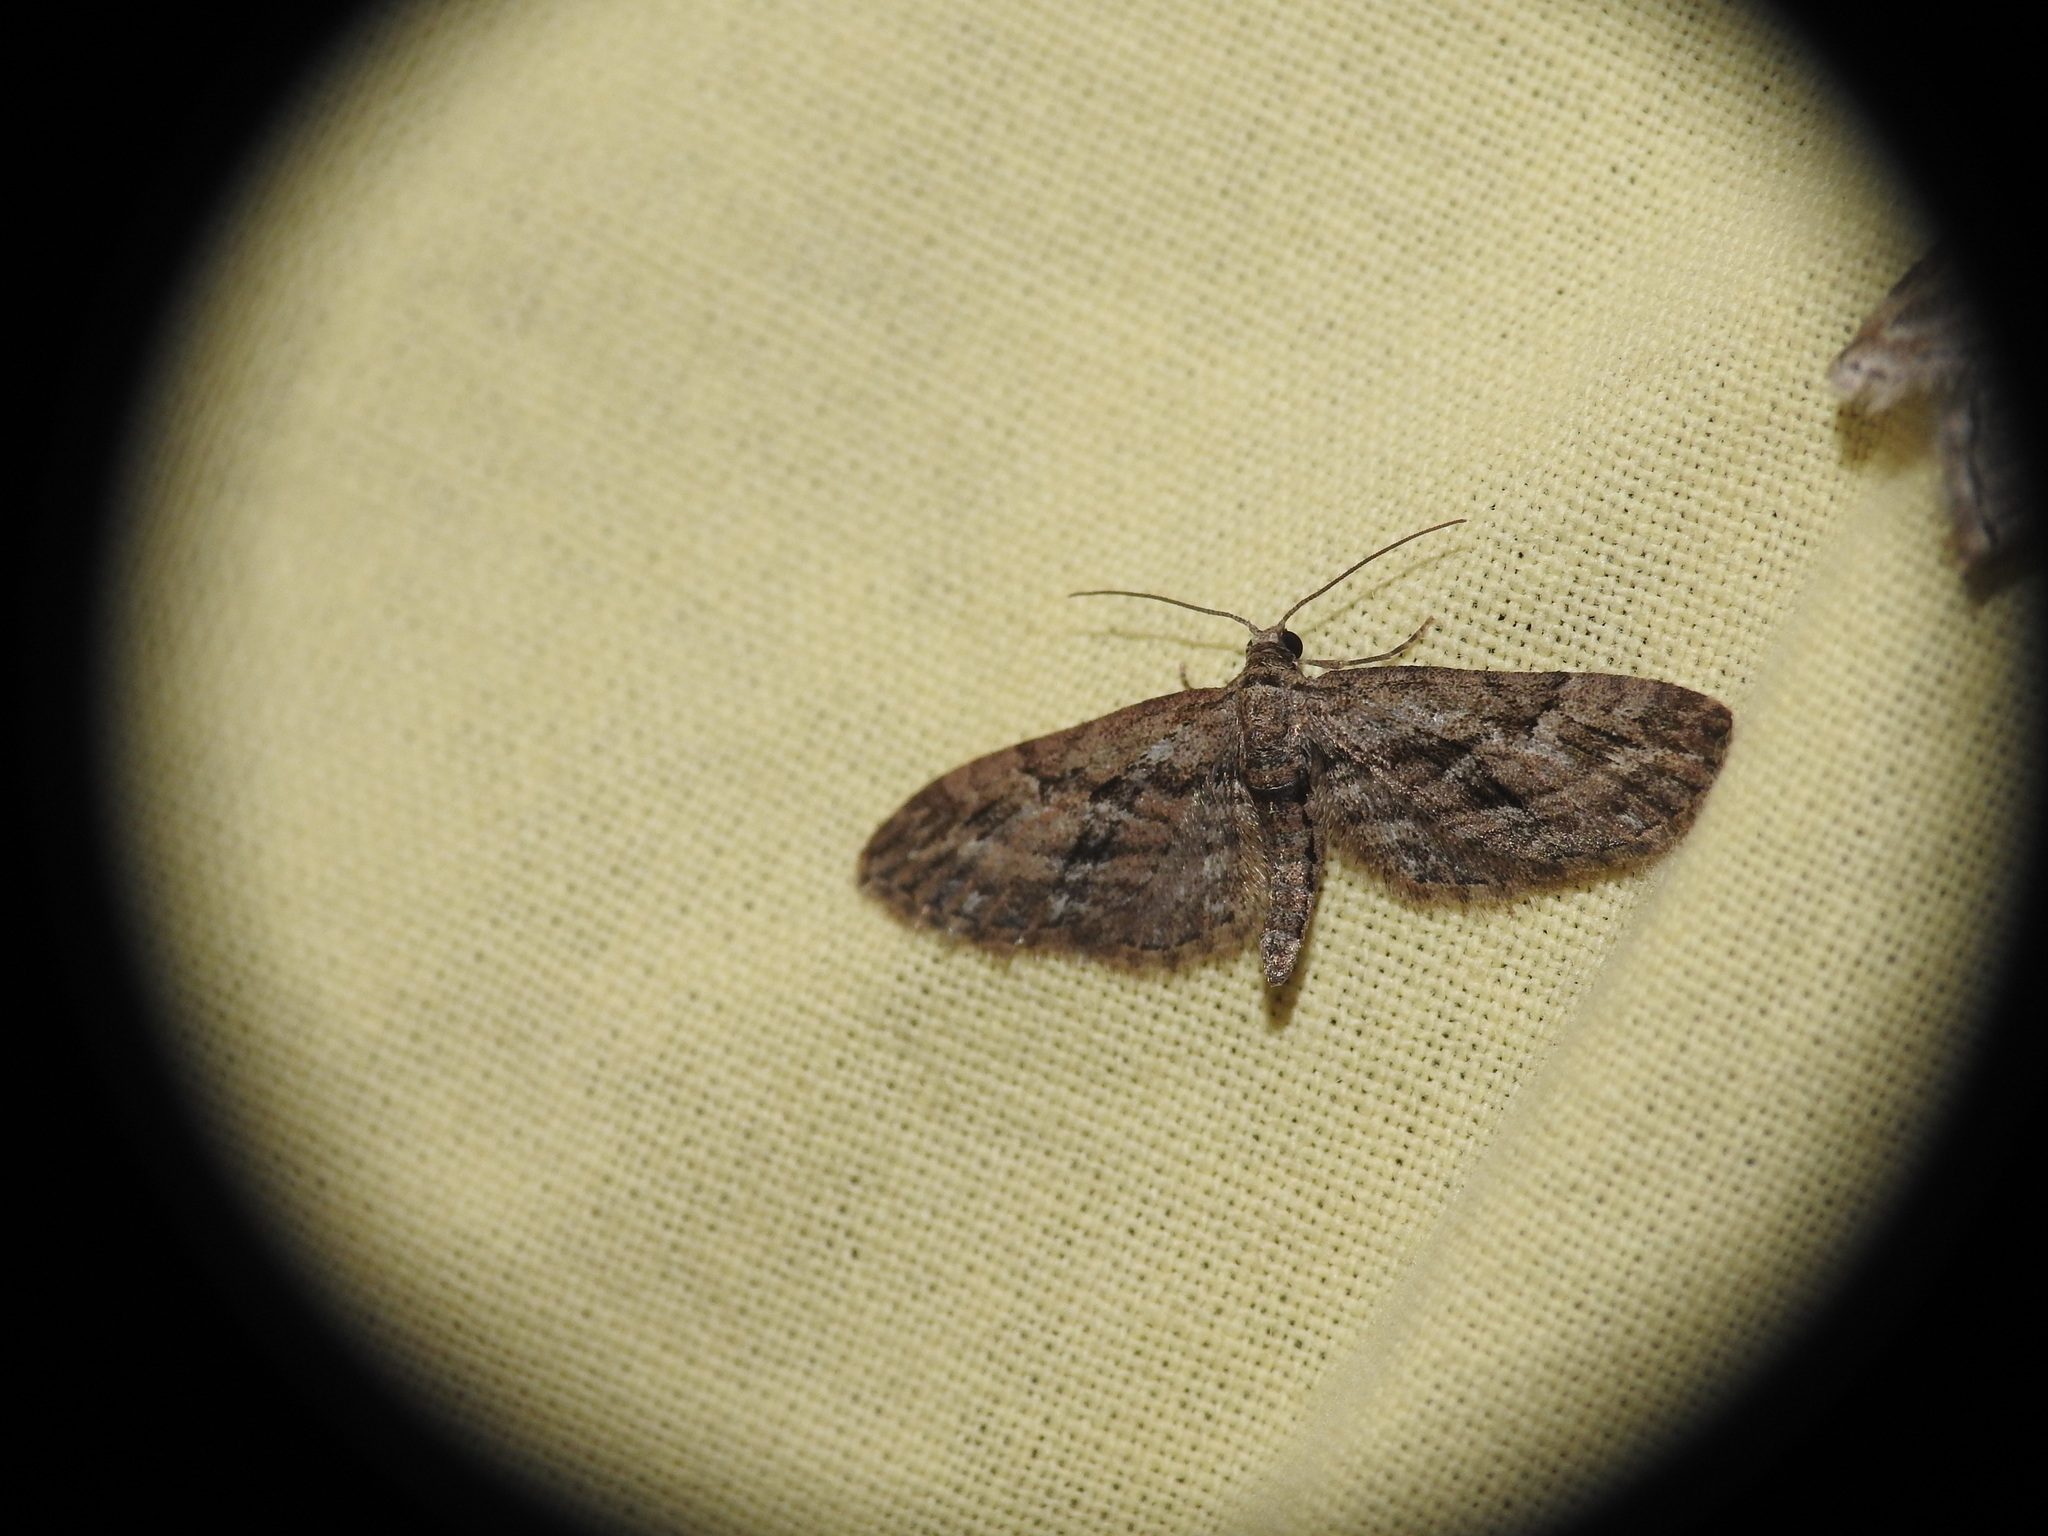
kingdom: Animalia
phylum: Arthropoda
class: Insecta
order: Lepidoptera
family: Geometridae
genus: Eupithecia
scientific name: Eupithecia oxycedrata
